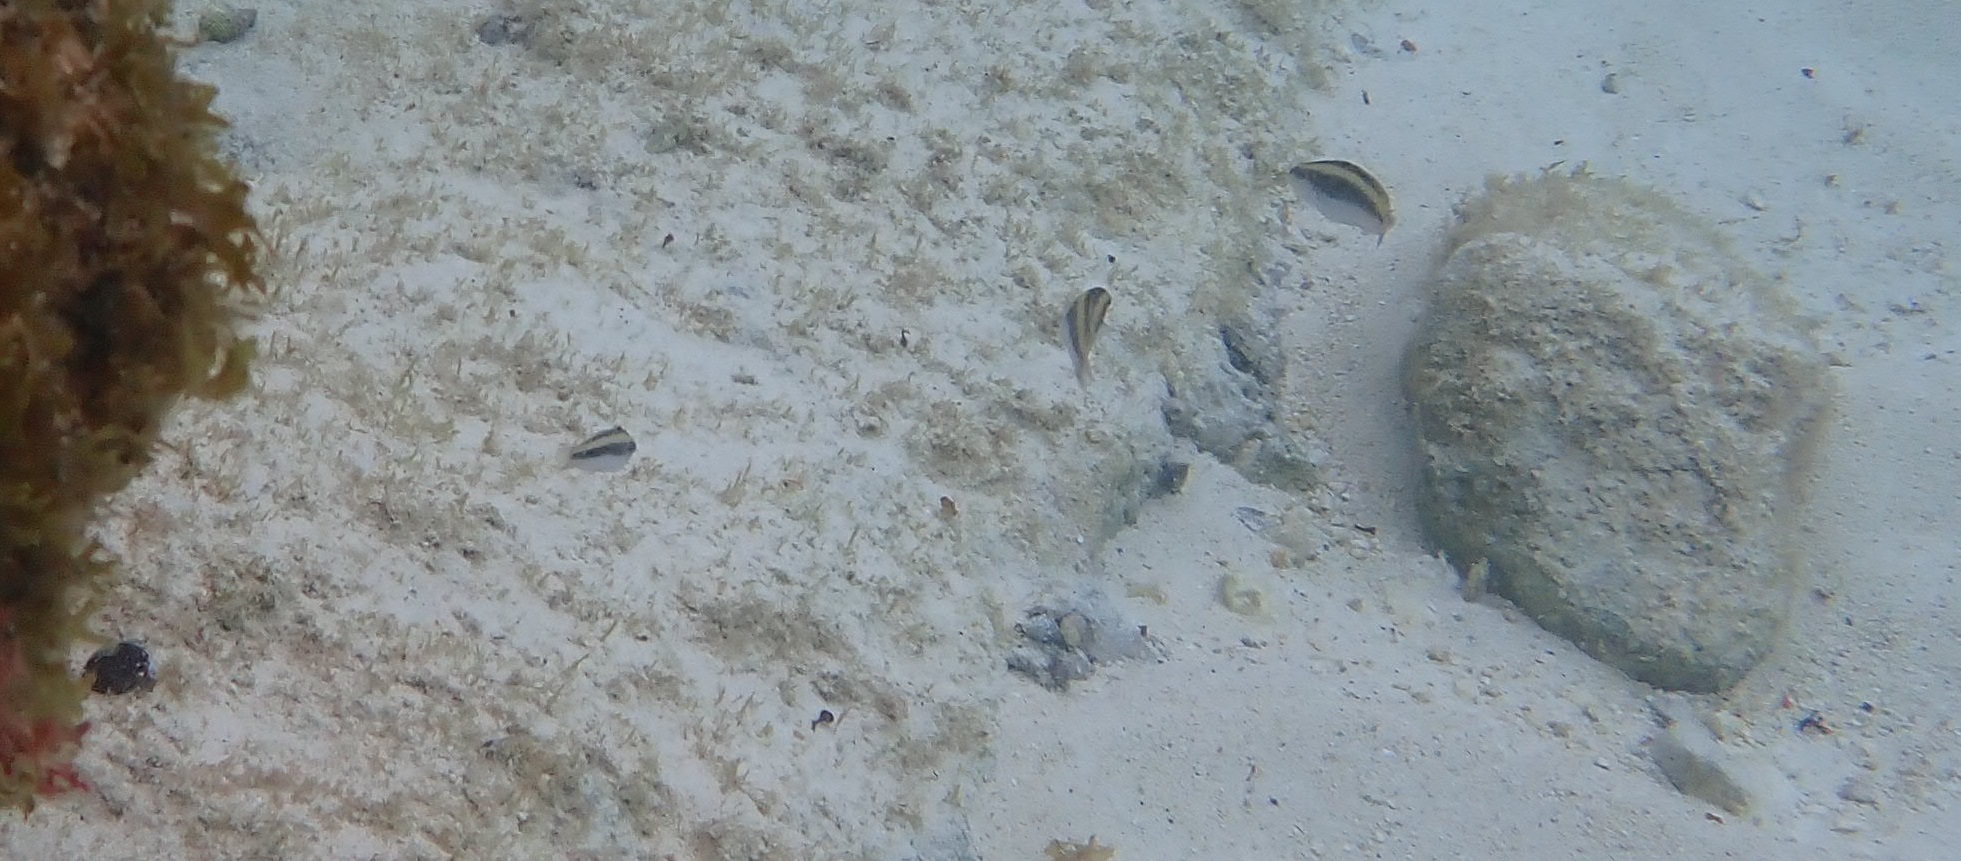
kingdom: Animalia
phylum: Chordata
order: Perciformes
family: Labridae
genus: Thalassoma
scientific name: Thalassoma bifasciatum
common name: Bluehead wrasse
